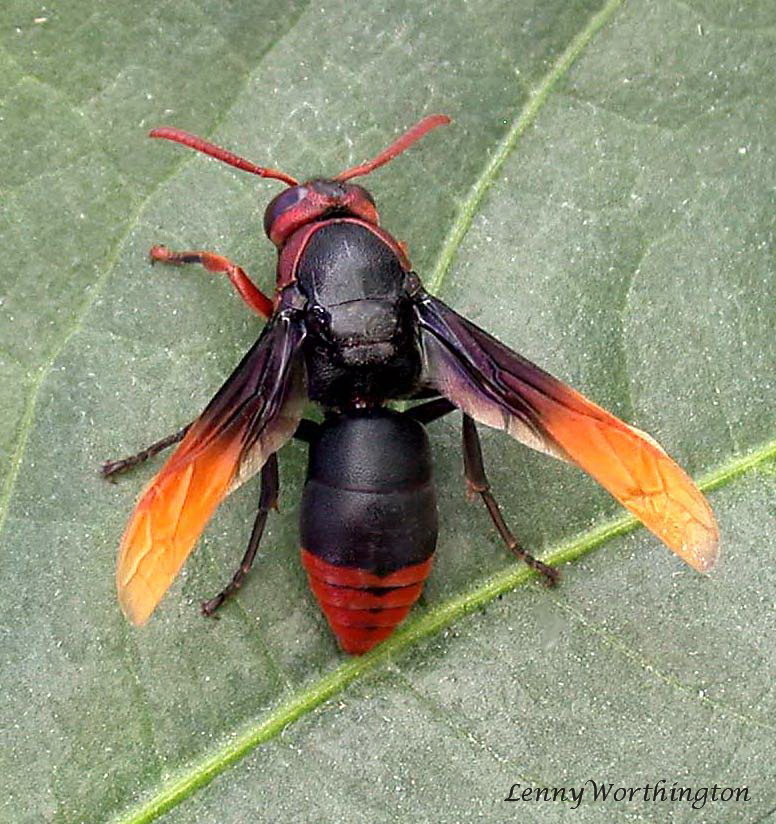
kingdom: Animalia
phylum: Arthropoda
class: Insecta
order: Hymenoptera
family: Eumenidae
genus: Rhynchium
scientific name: Rhynchium haemorrhoidale
